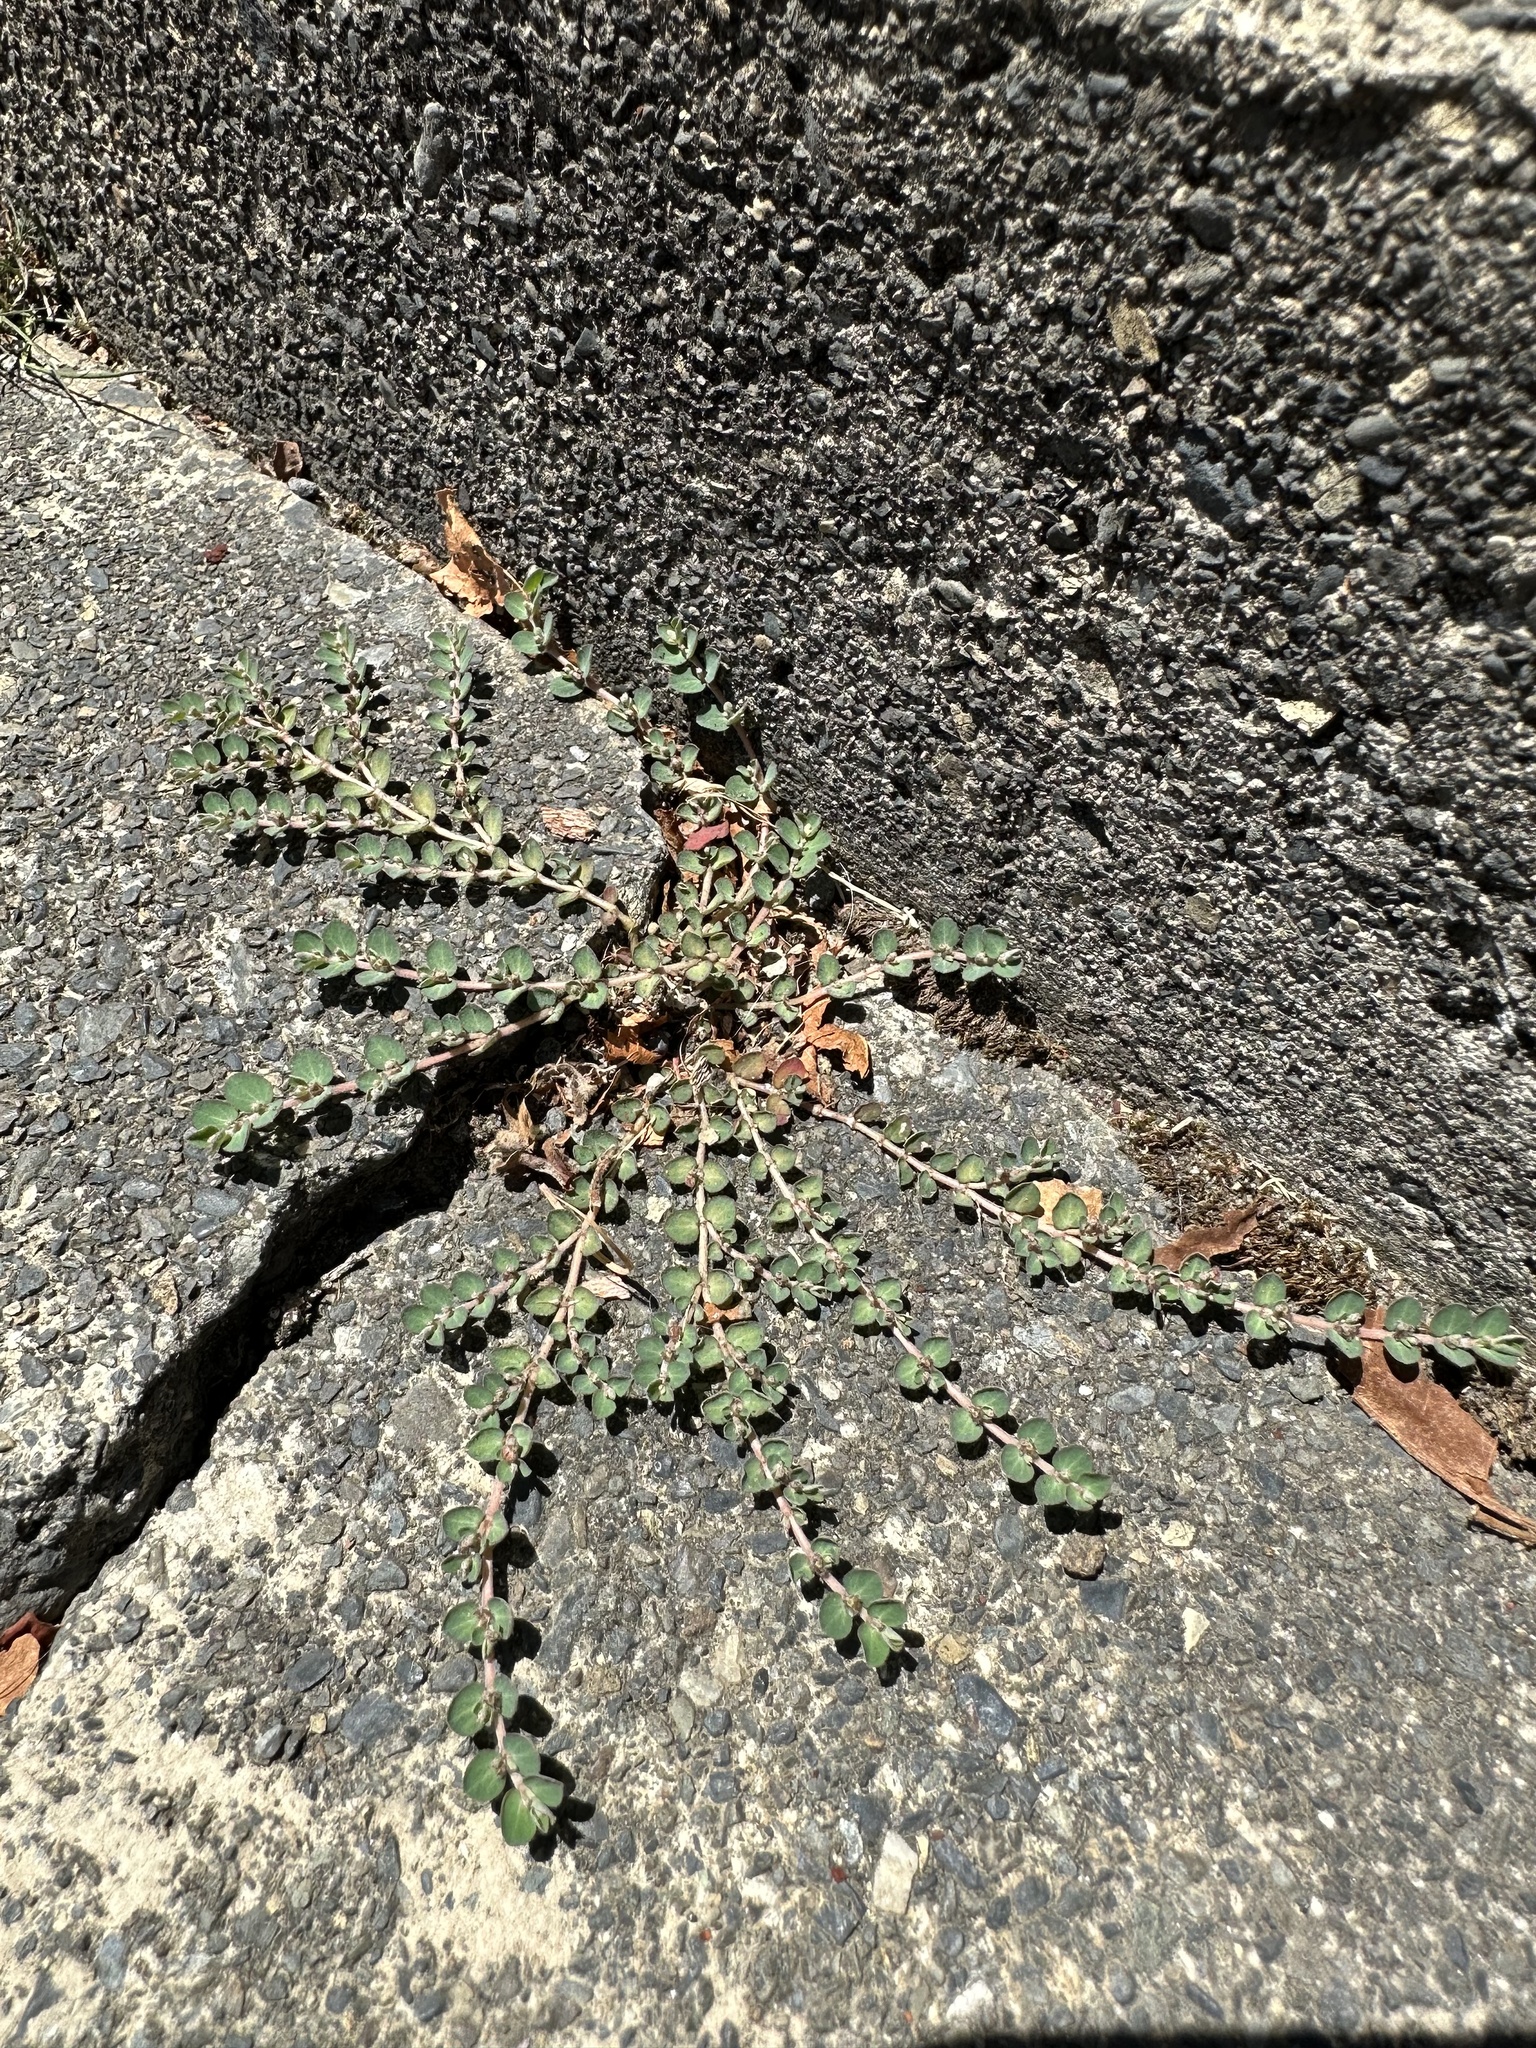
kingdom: Plantae
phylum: Tracheophyta
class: Magnoliopsida
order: Malpighiales
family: Euphorbiaceae
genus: Euphorbia
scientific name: Euphorbia prostrata
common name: Prostrate sandmat
